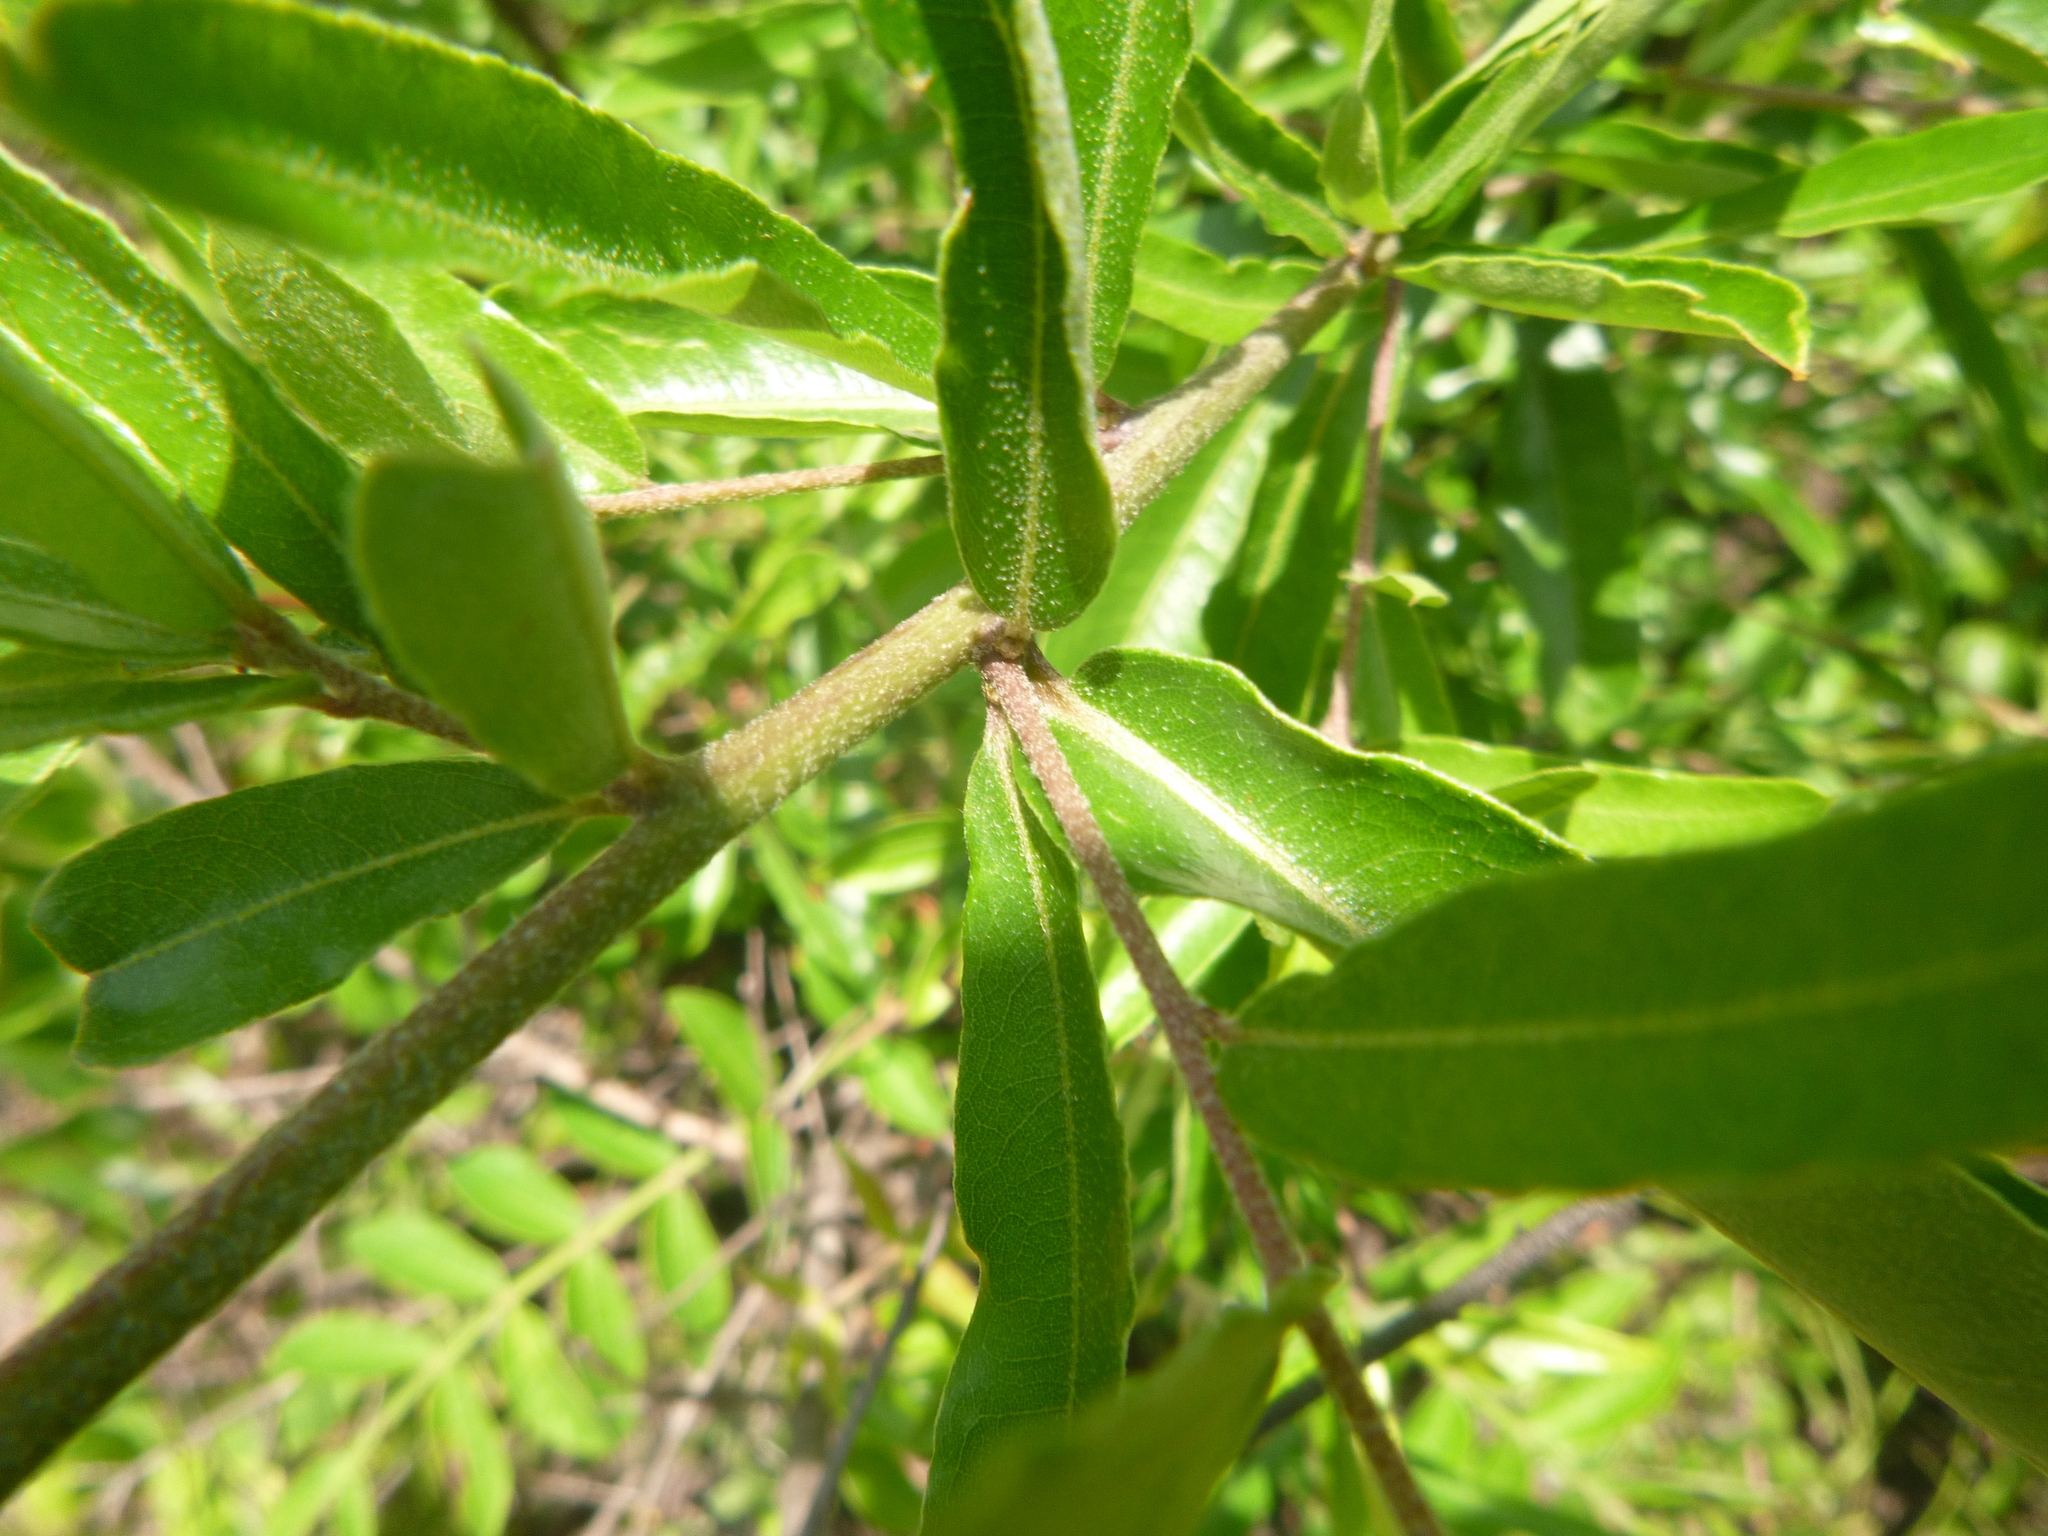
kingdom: Plantae
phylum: Tracheophyta
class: Magnoliopsida
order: Fagales
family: Fagaceae
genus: Quercus
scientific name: Quercus phellos
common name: Willow oak
